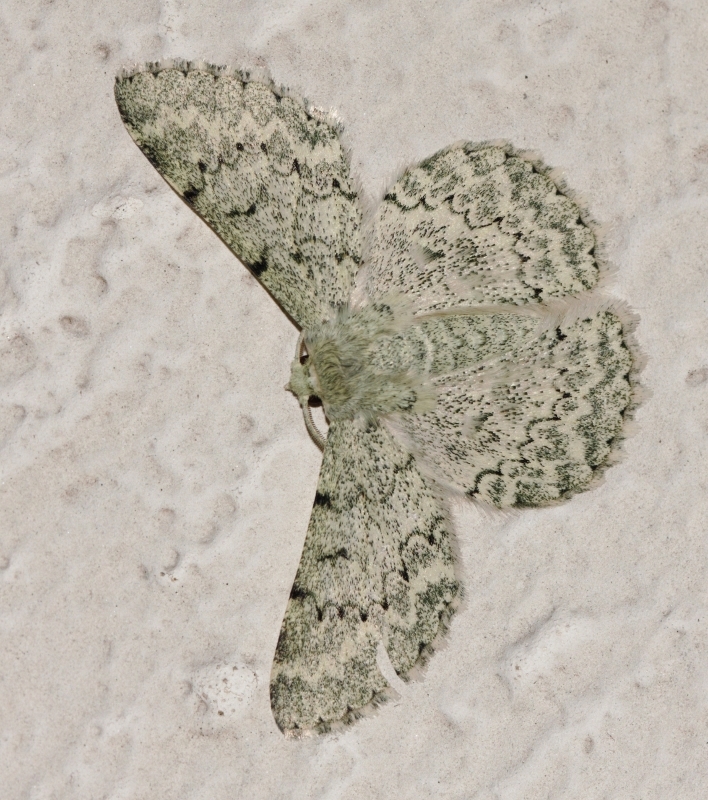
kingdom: Animalia
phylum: Arthropoda
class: Insecta
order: Lepidoptera
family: Geometridae
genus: Pingasa
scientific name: Pingasa abyssiniaria
